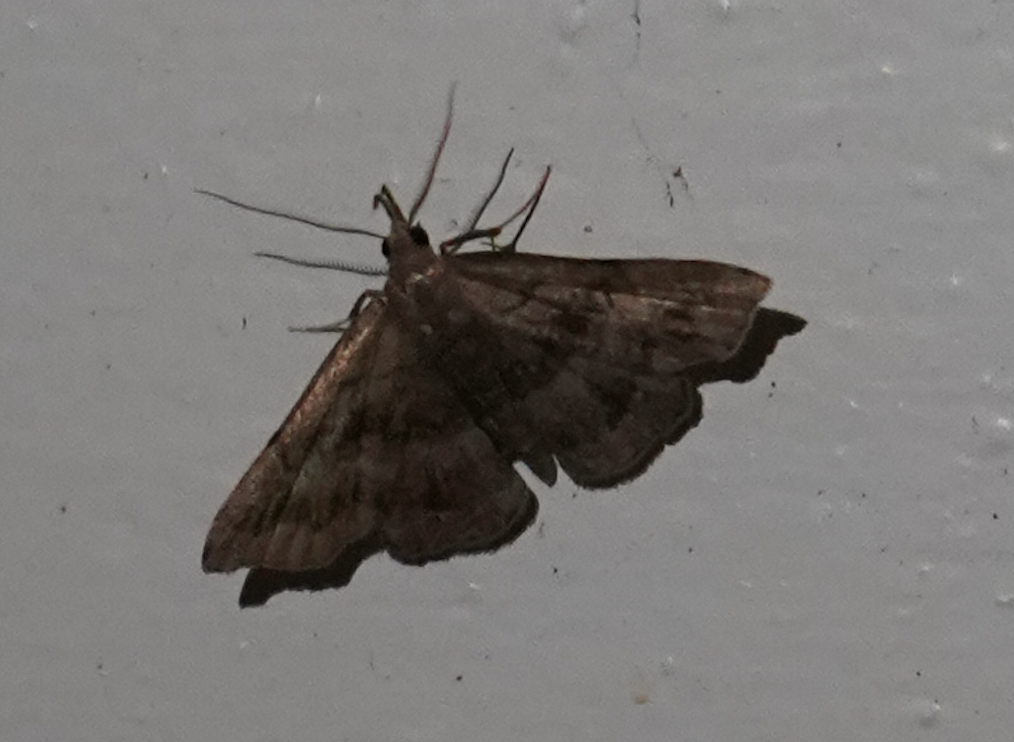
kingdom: Animalia
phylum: Arthropoda
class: Insecta
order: Lepidoptera
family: Erebidae
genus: Phalaenostola
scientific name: Phalaenostola larentioides
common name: Black-banded owlet
